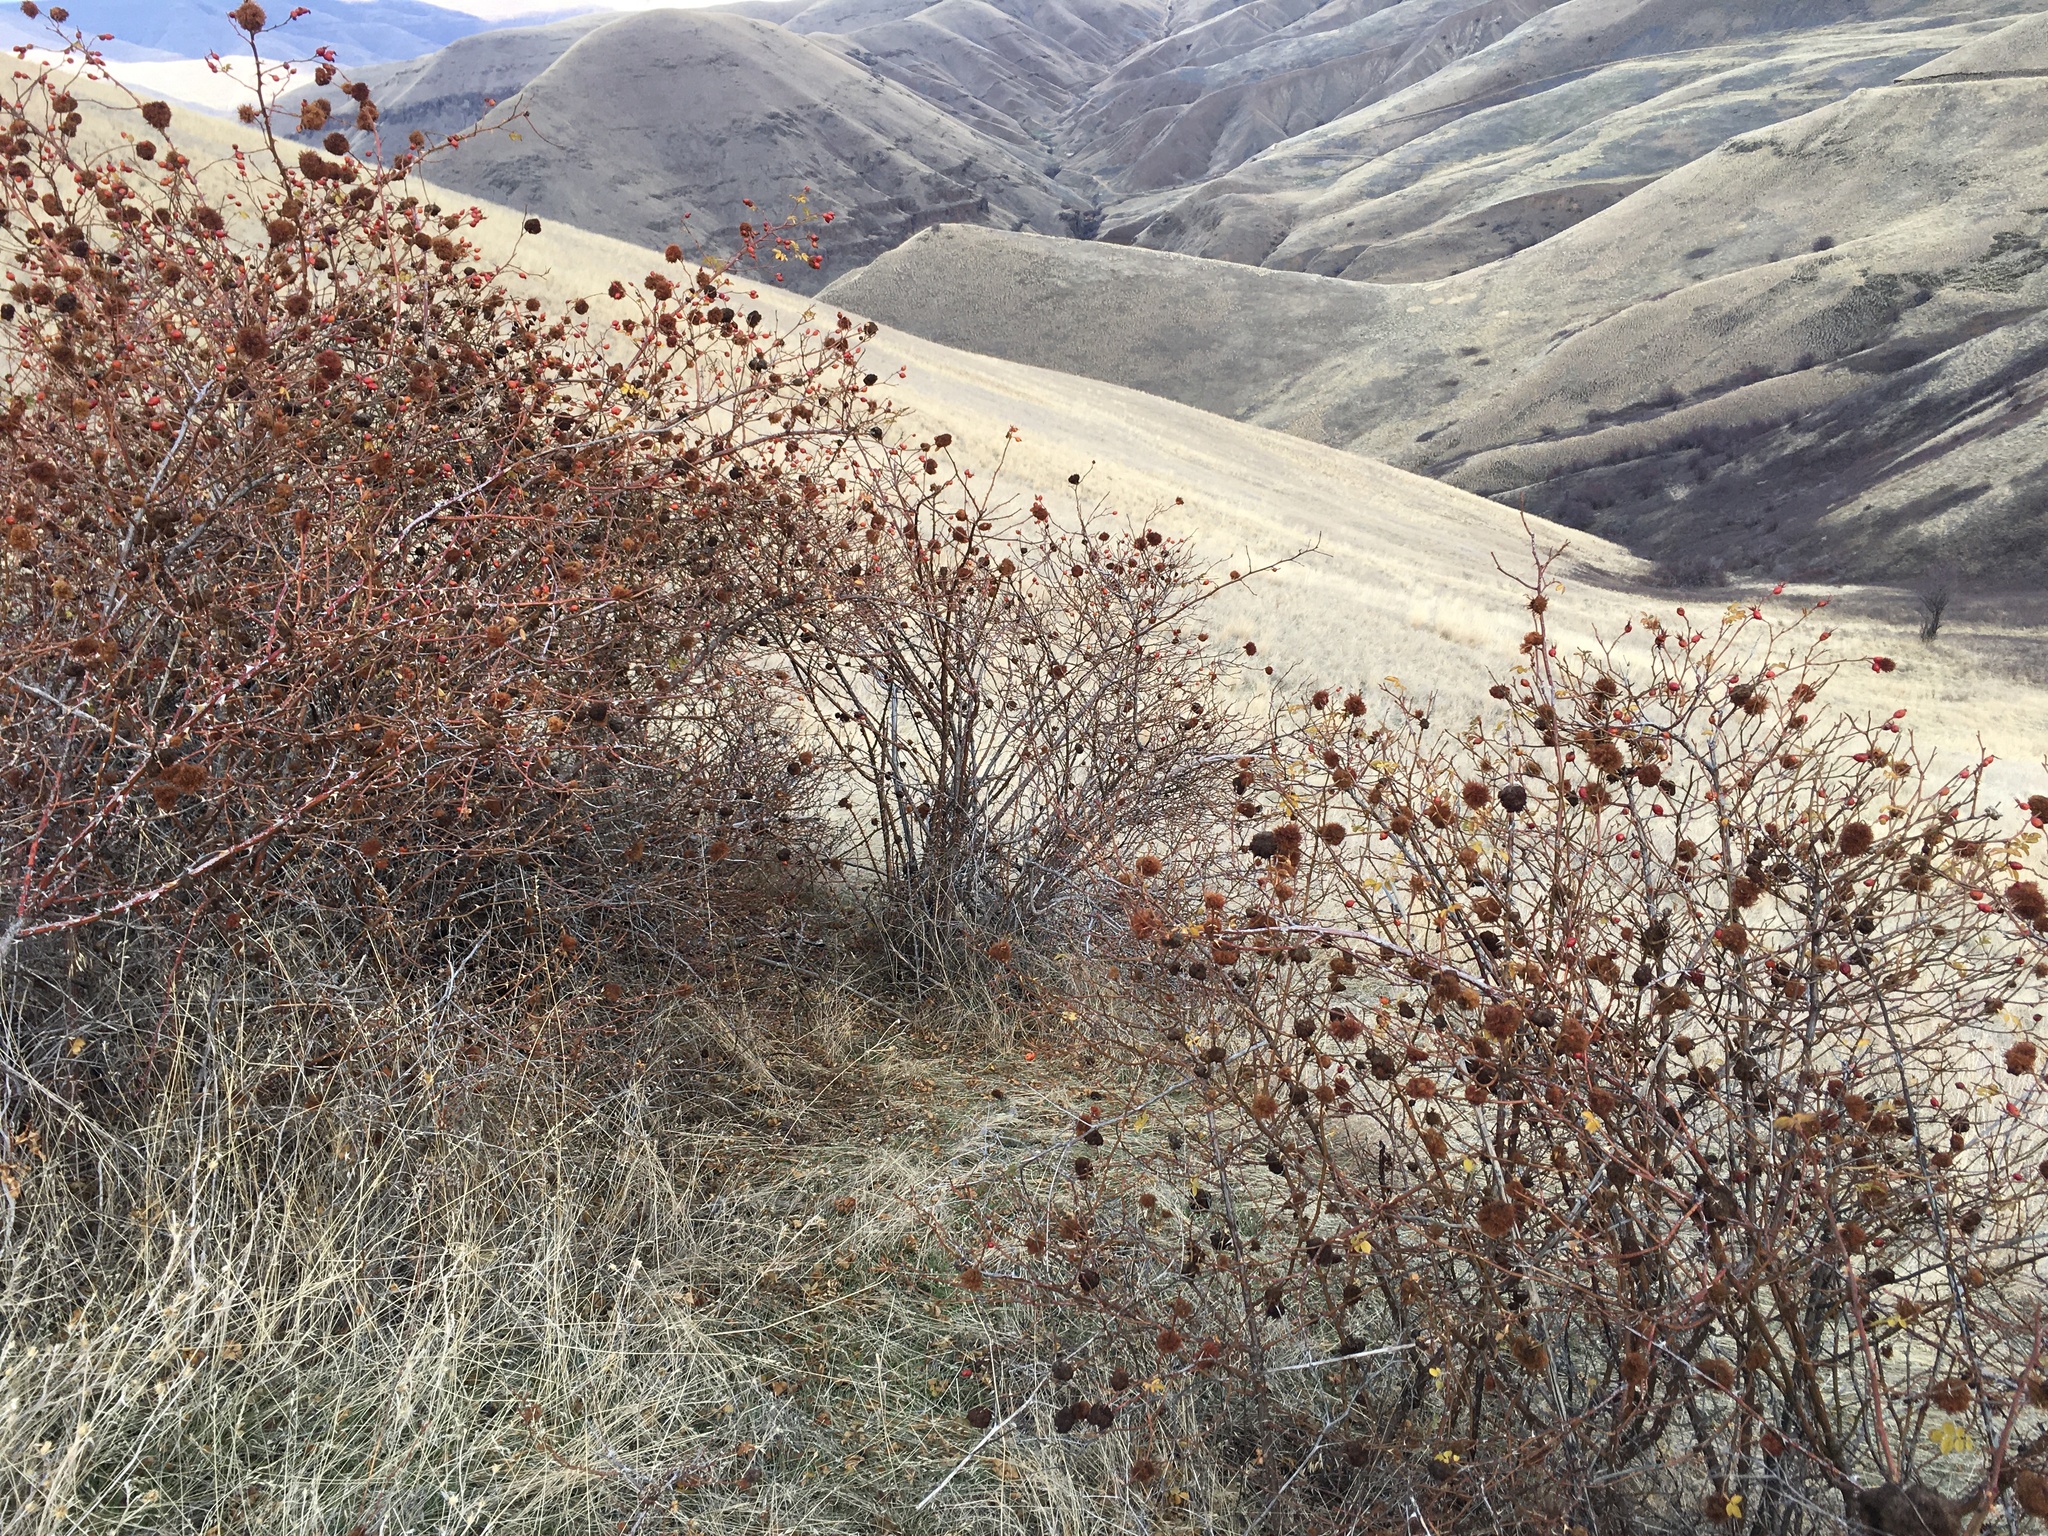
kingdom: Animalia
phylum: Arthropoda
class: Insecta
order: Hymenoptera
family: Cynipidae
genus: Diplolepis
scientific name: Diplolepis rosae
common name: Bedeguar gall
